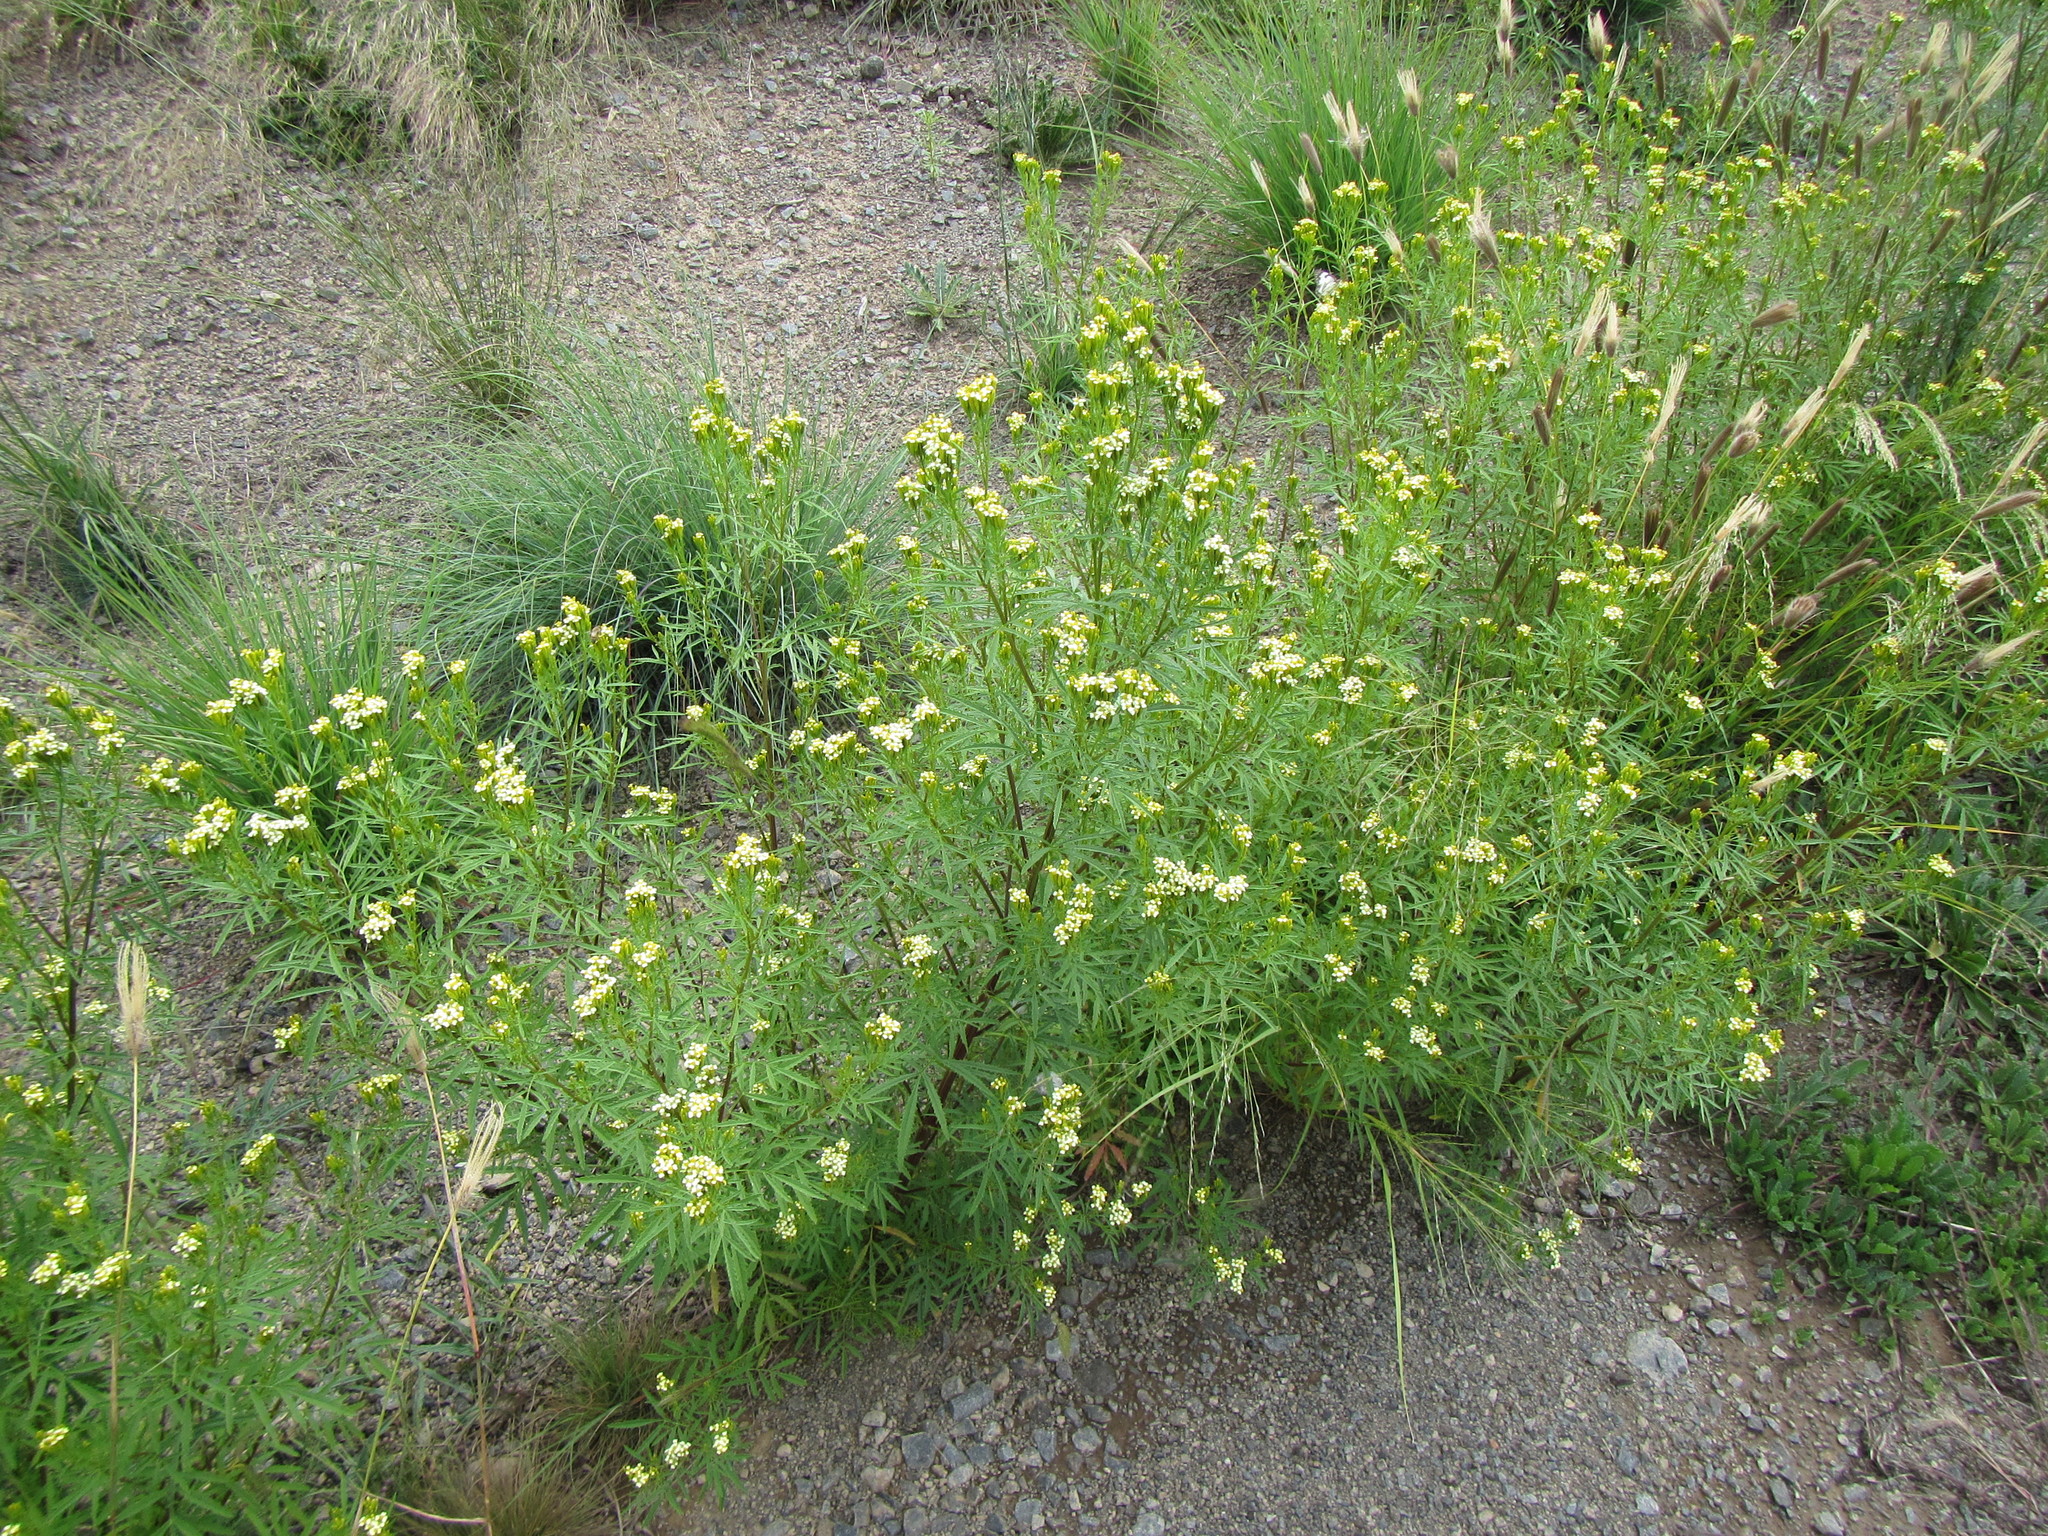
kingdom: Plantae
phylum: Tracheophyta
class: Magnoliopsida
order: Asterales
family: Asteraceae
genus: Tagetes
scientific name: Tagetes minuta
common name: Muster john henry
